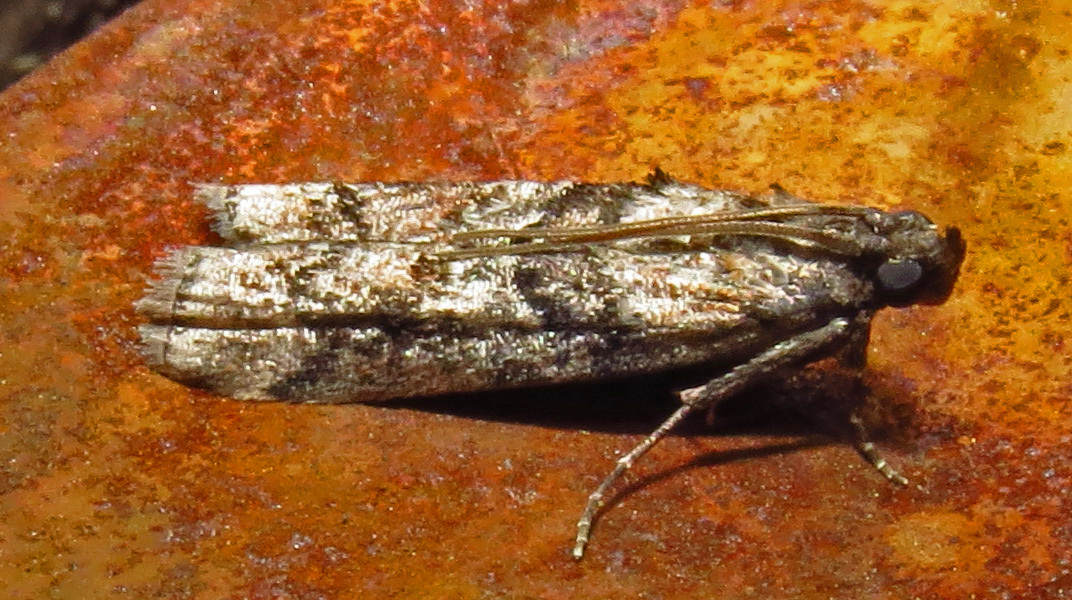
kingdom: Animalia
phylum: Arthropoda
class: Insecta
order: Lepidoptera
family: Pyralidae
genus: Dioryctria
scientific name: Dioryctria clarioralis
